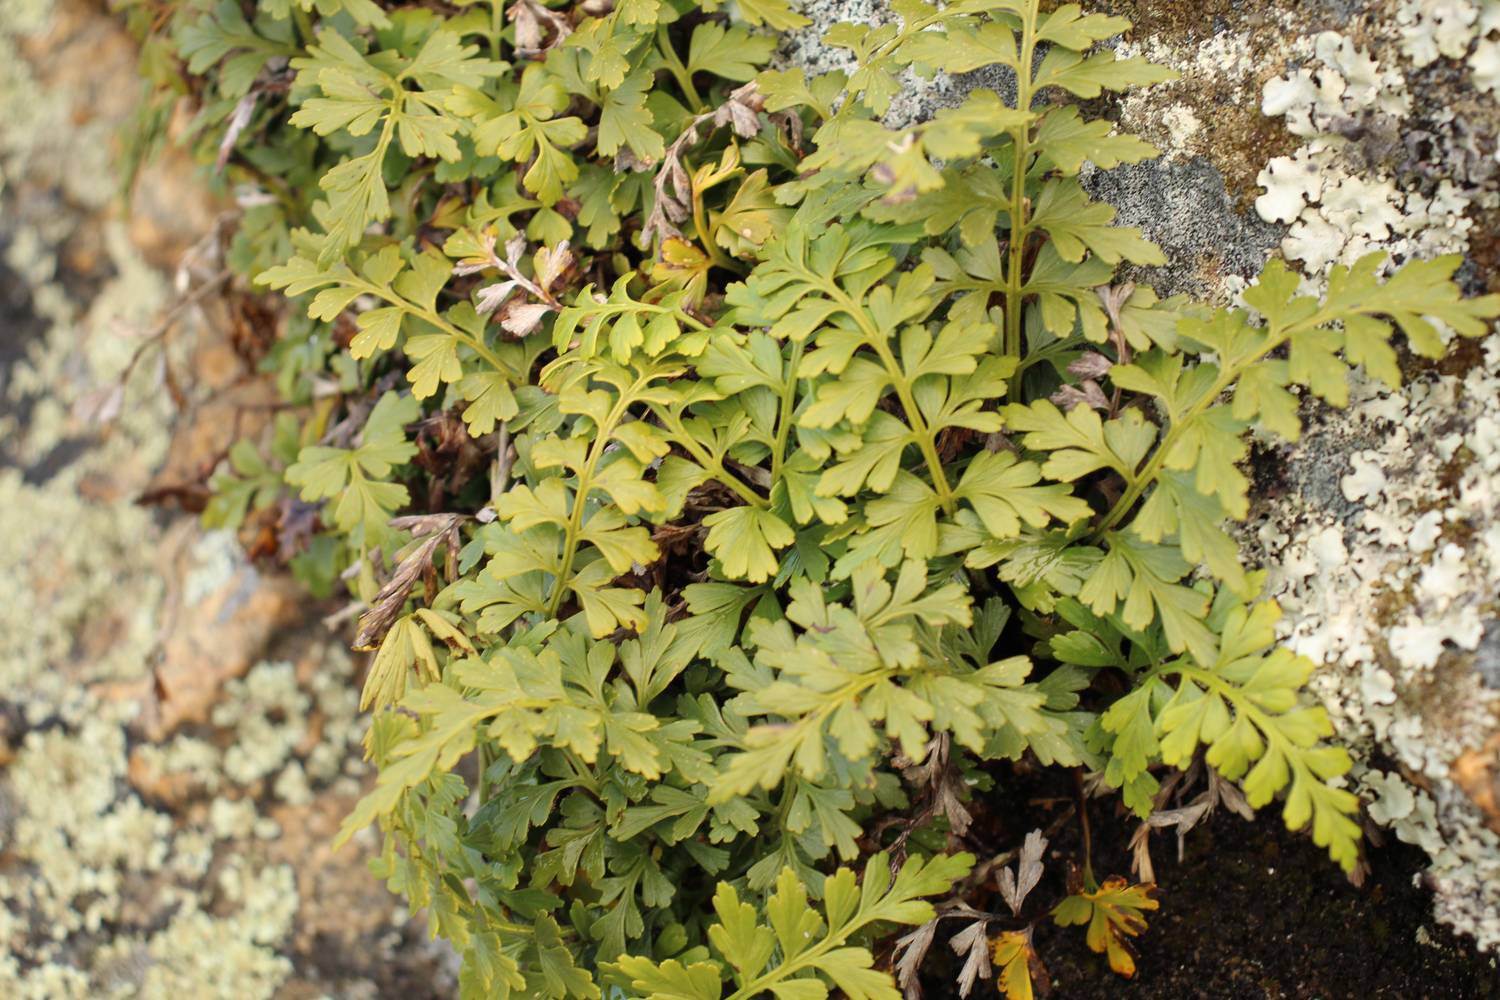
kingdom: Plantae
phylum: Tracheophyta
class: Polypodiopsida
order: Polypodiales
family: Aspleniaceae
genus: Asplenium
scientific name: Asplenium aethiopicum
